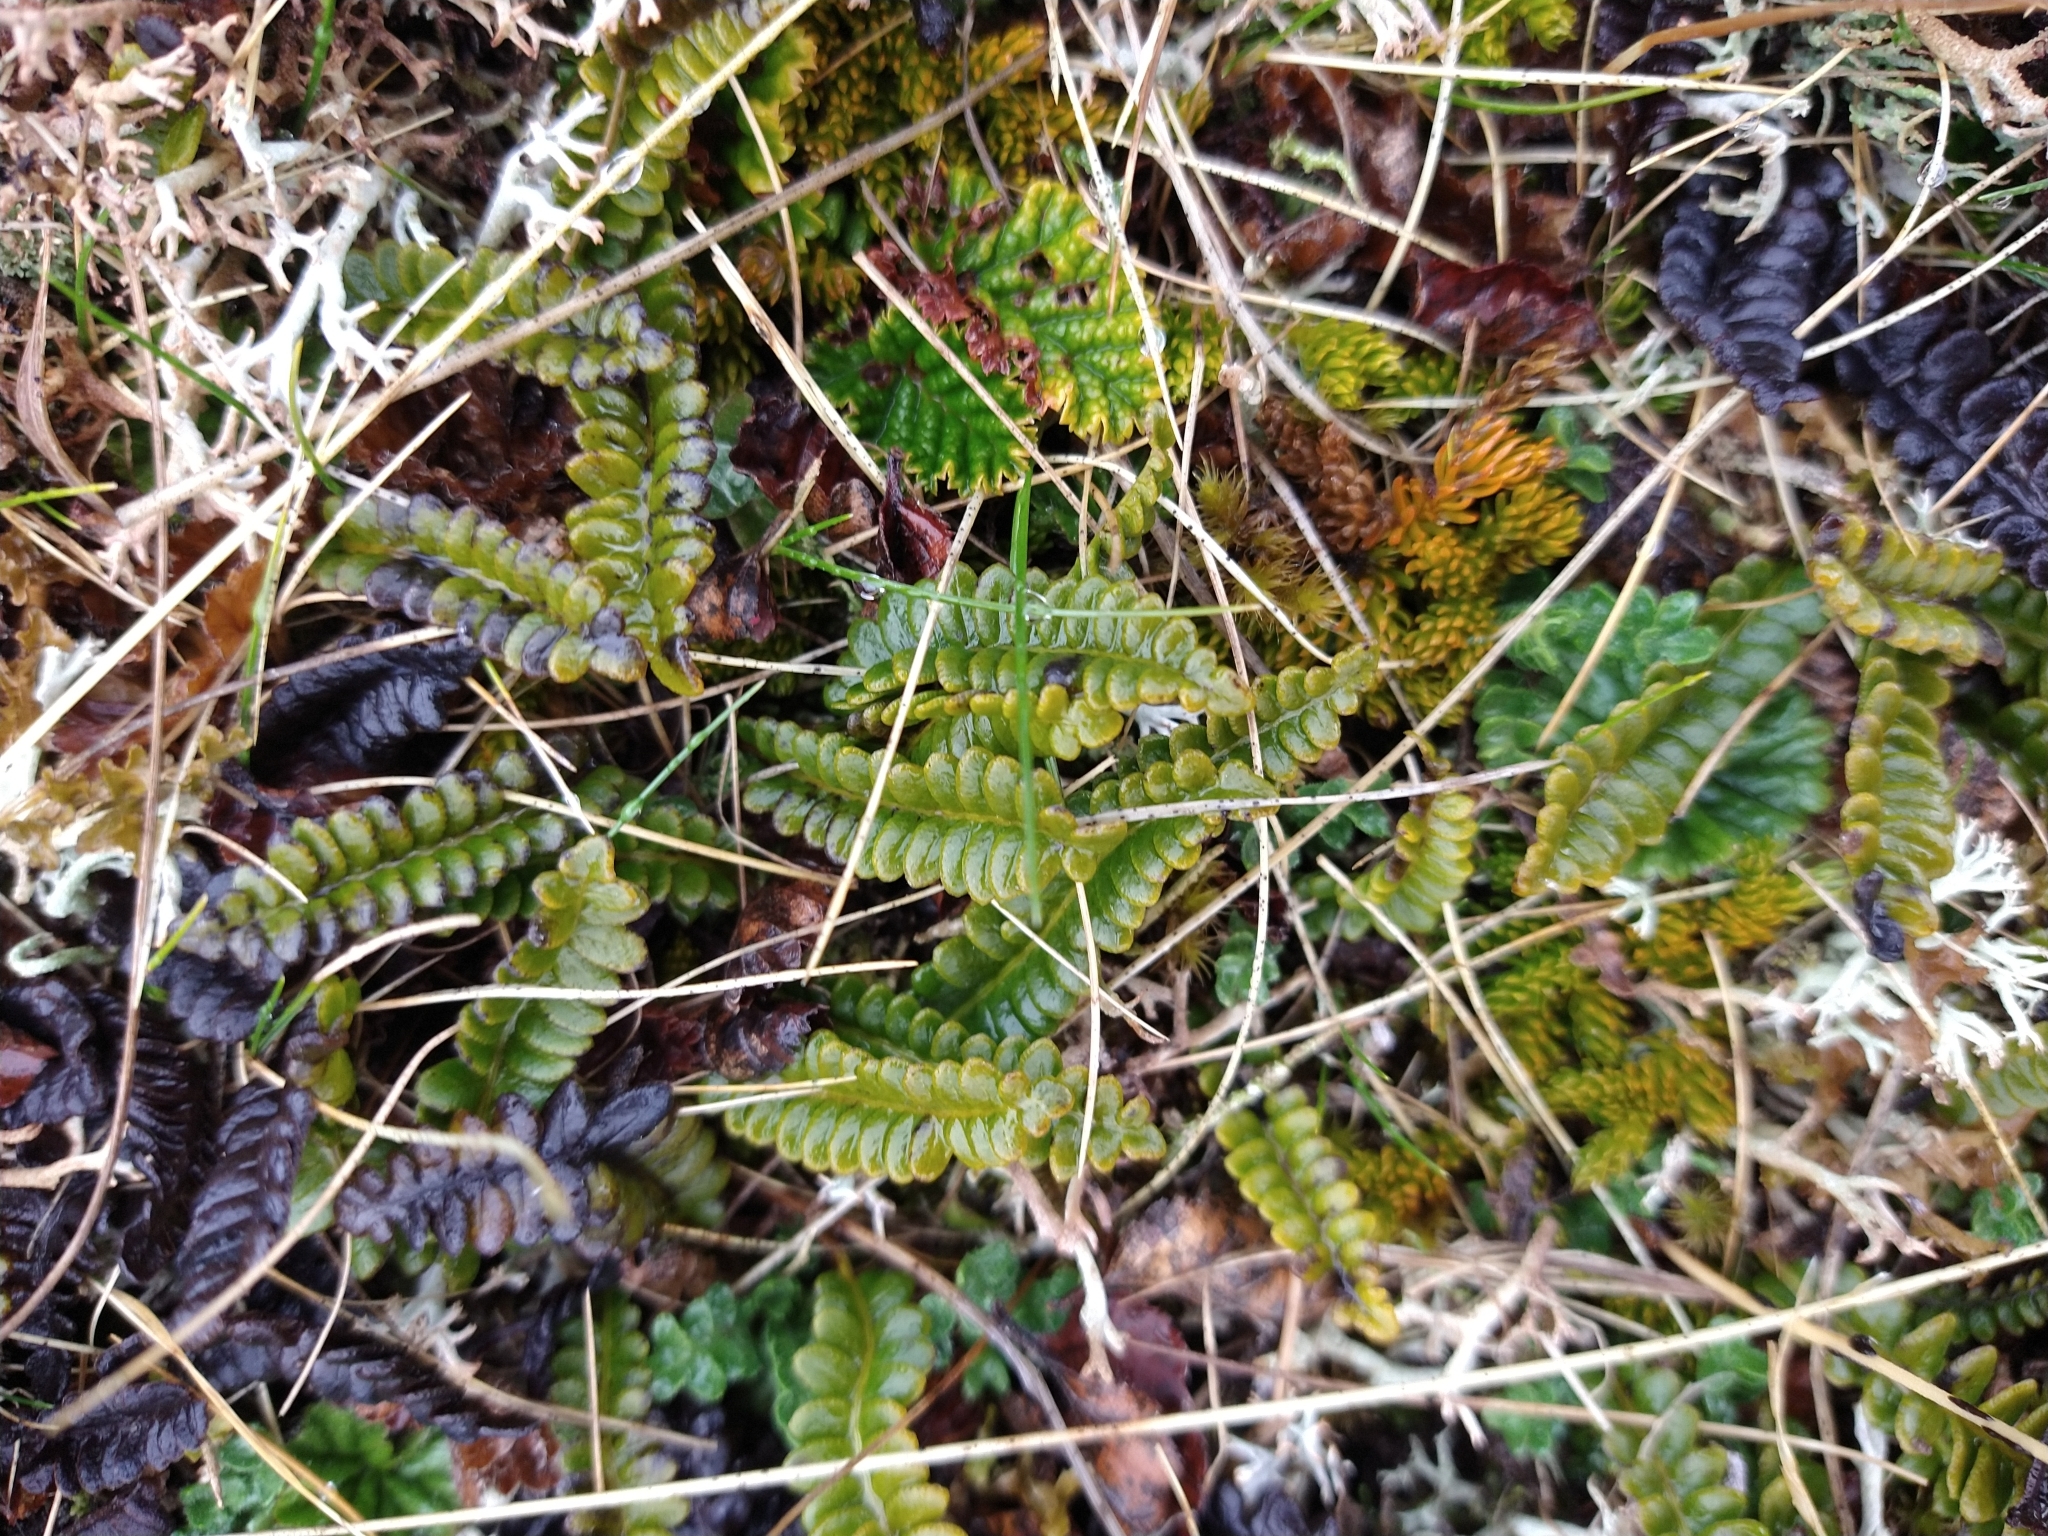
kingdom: Plantae
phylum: Tracheophyta
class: Polypodiopsida
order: Polypodiales
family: Blechnaceae
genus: Austroblechnum
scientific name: Austroblechnum penna-marina
